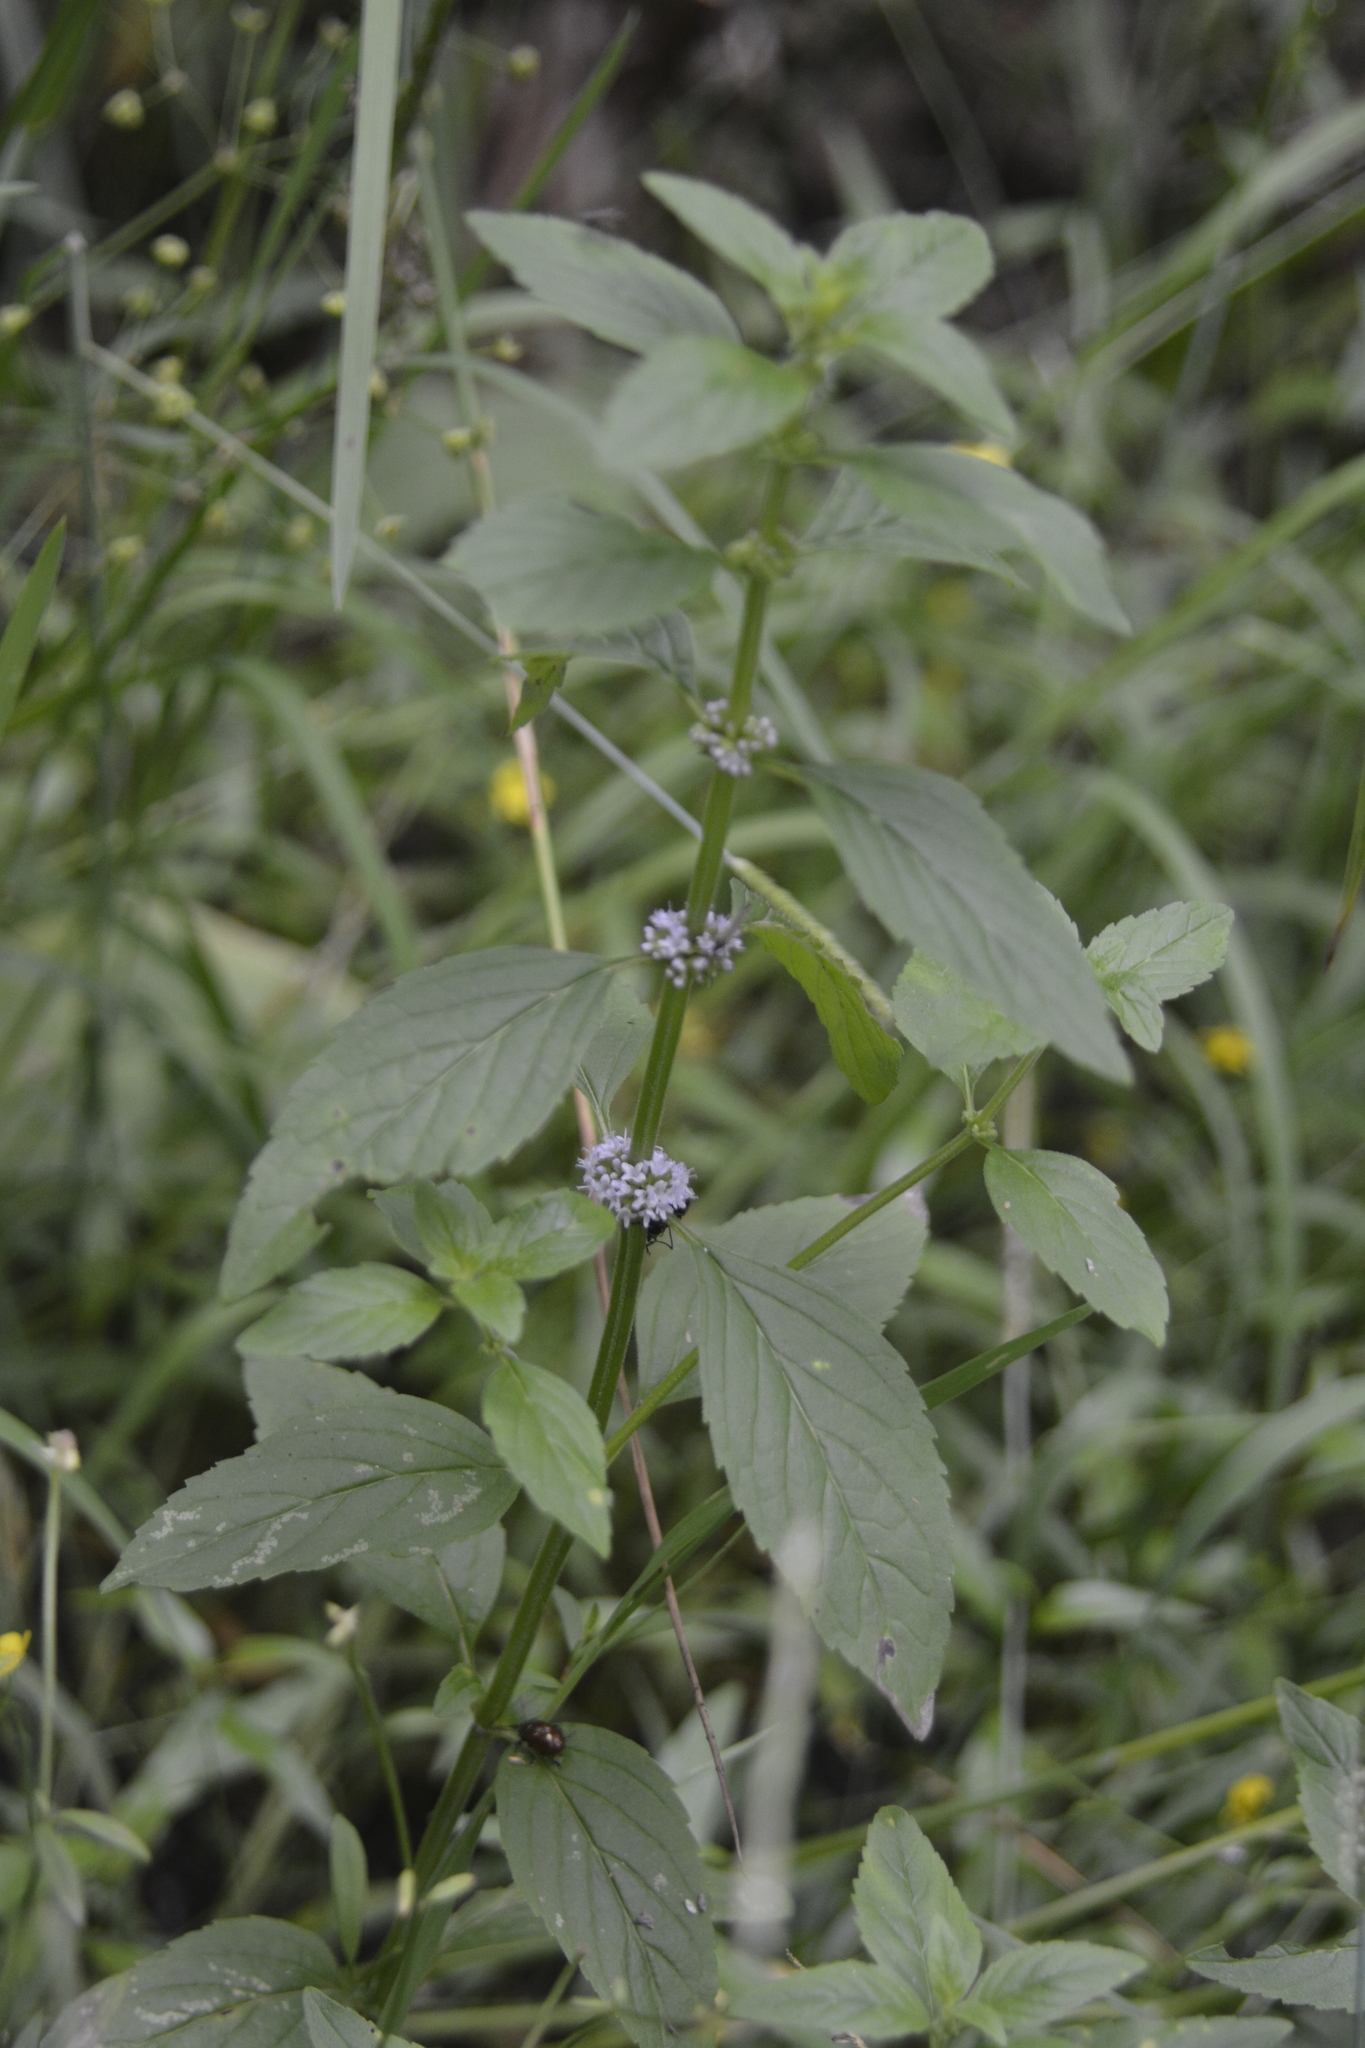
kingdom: Plantae
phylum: Tracheophyta
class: Magnoliopsida
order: Lamiales
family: Lamiaceae
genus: Mentha
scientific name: Mentha arvensis
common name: Corn mint
